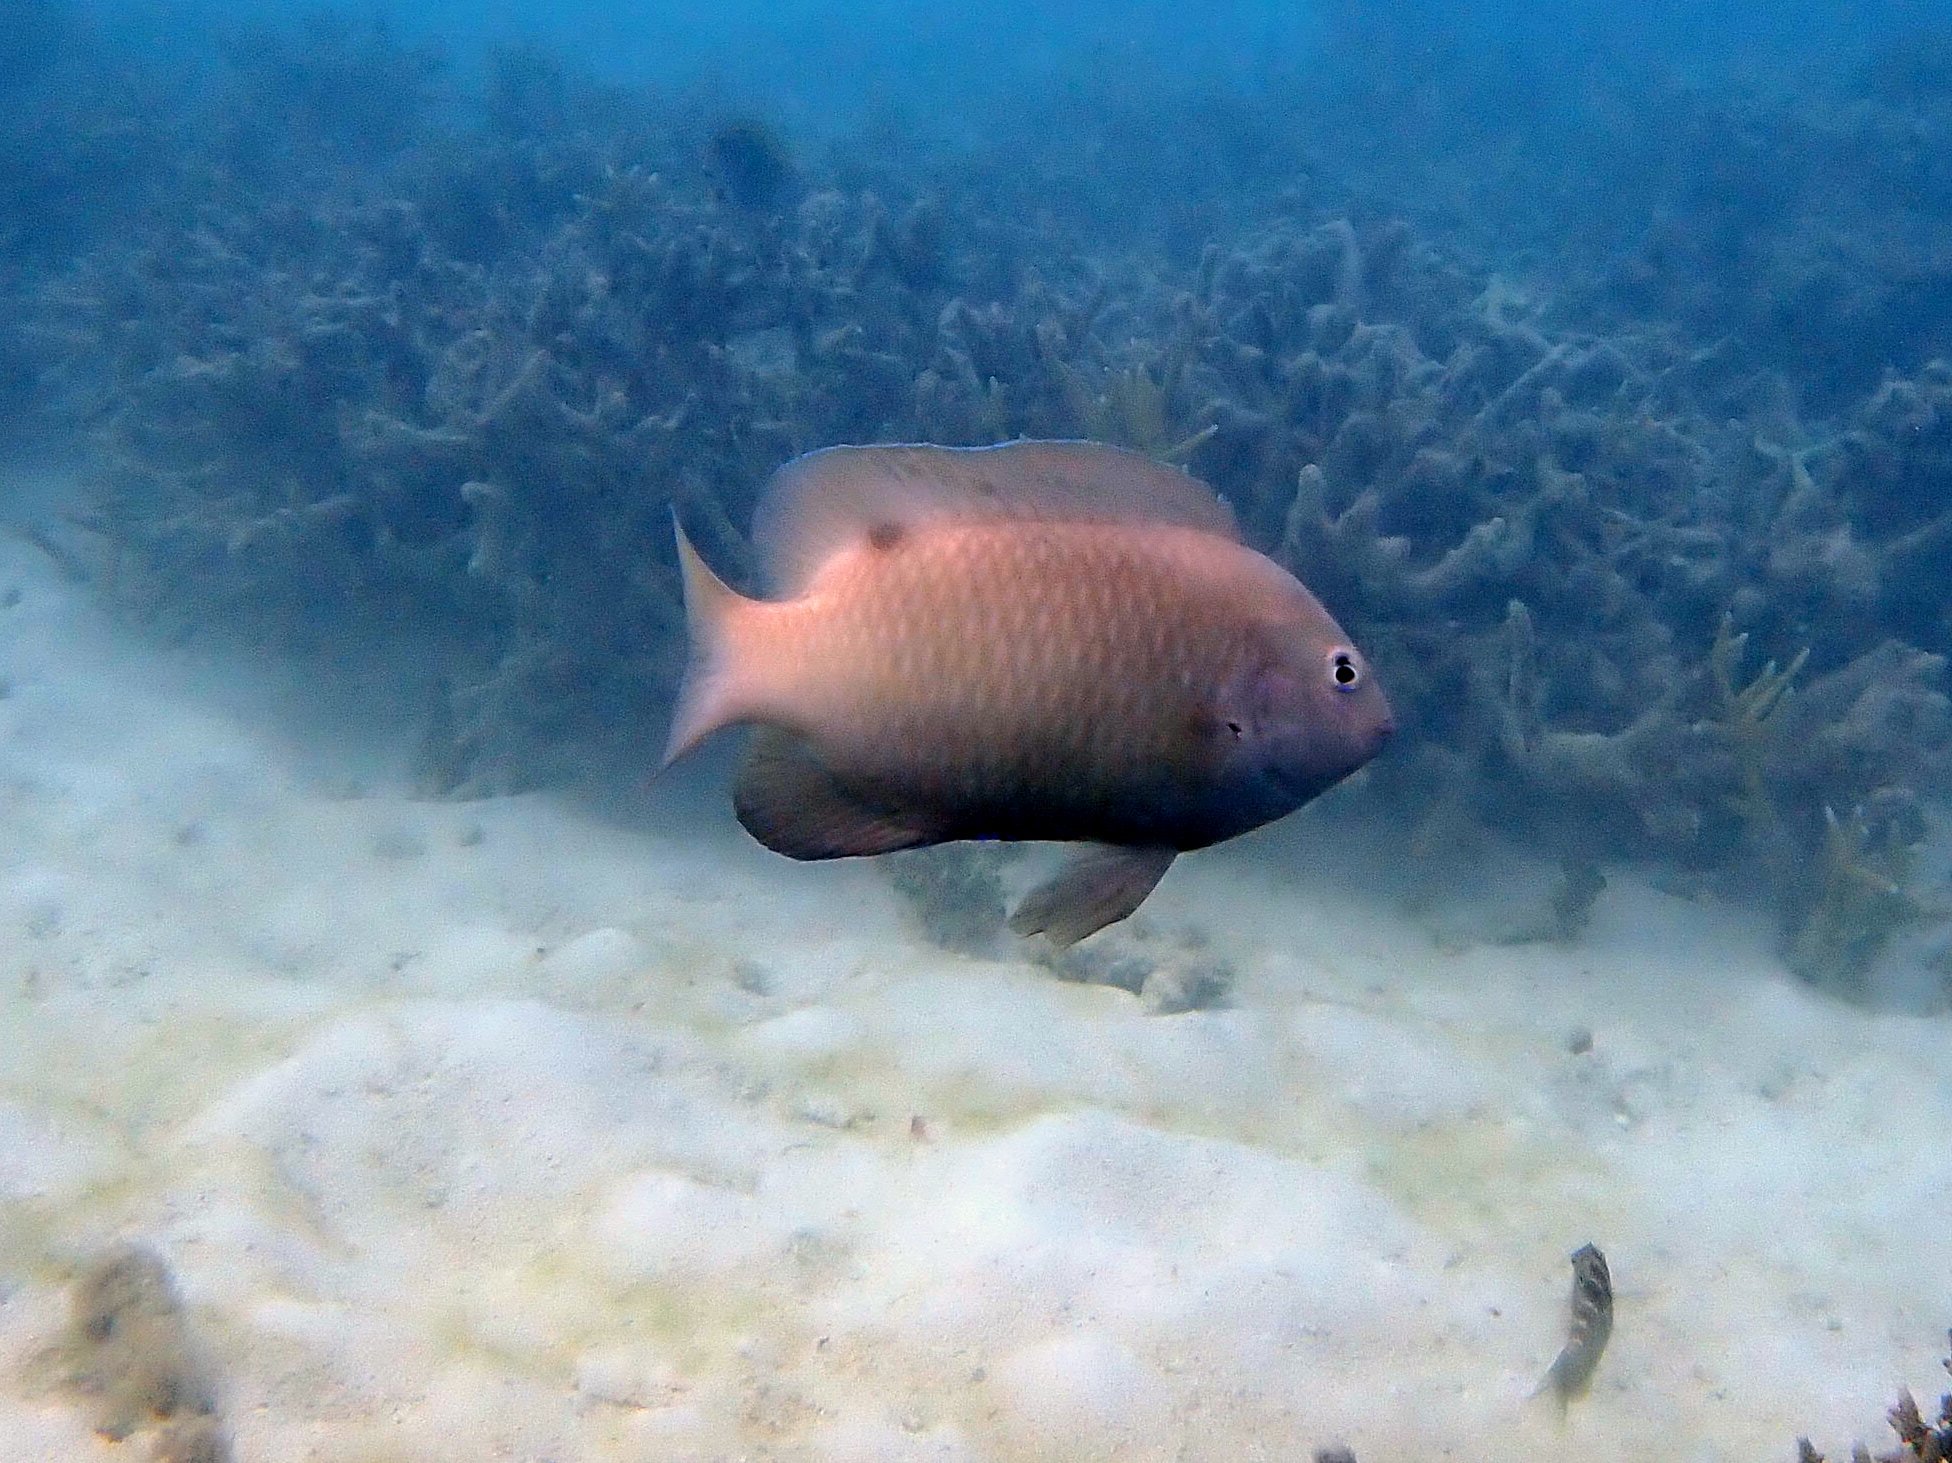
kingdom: Animalia
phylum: Chordata
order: Perciformes
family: Pomacentridae
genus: Dischistodus
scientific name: Dischistodus perspicillatus
